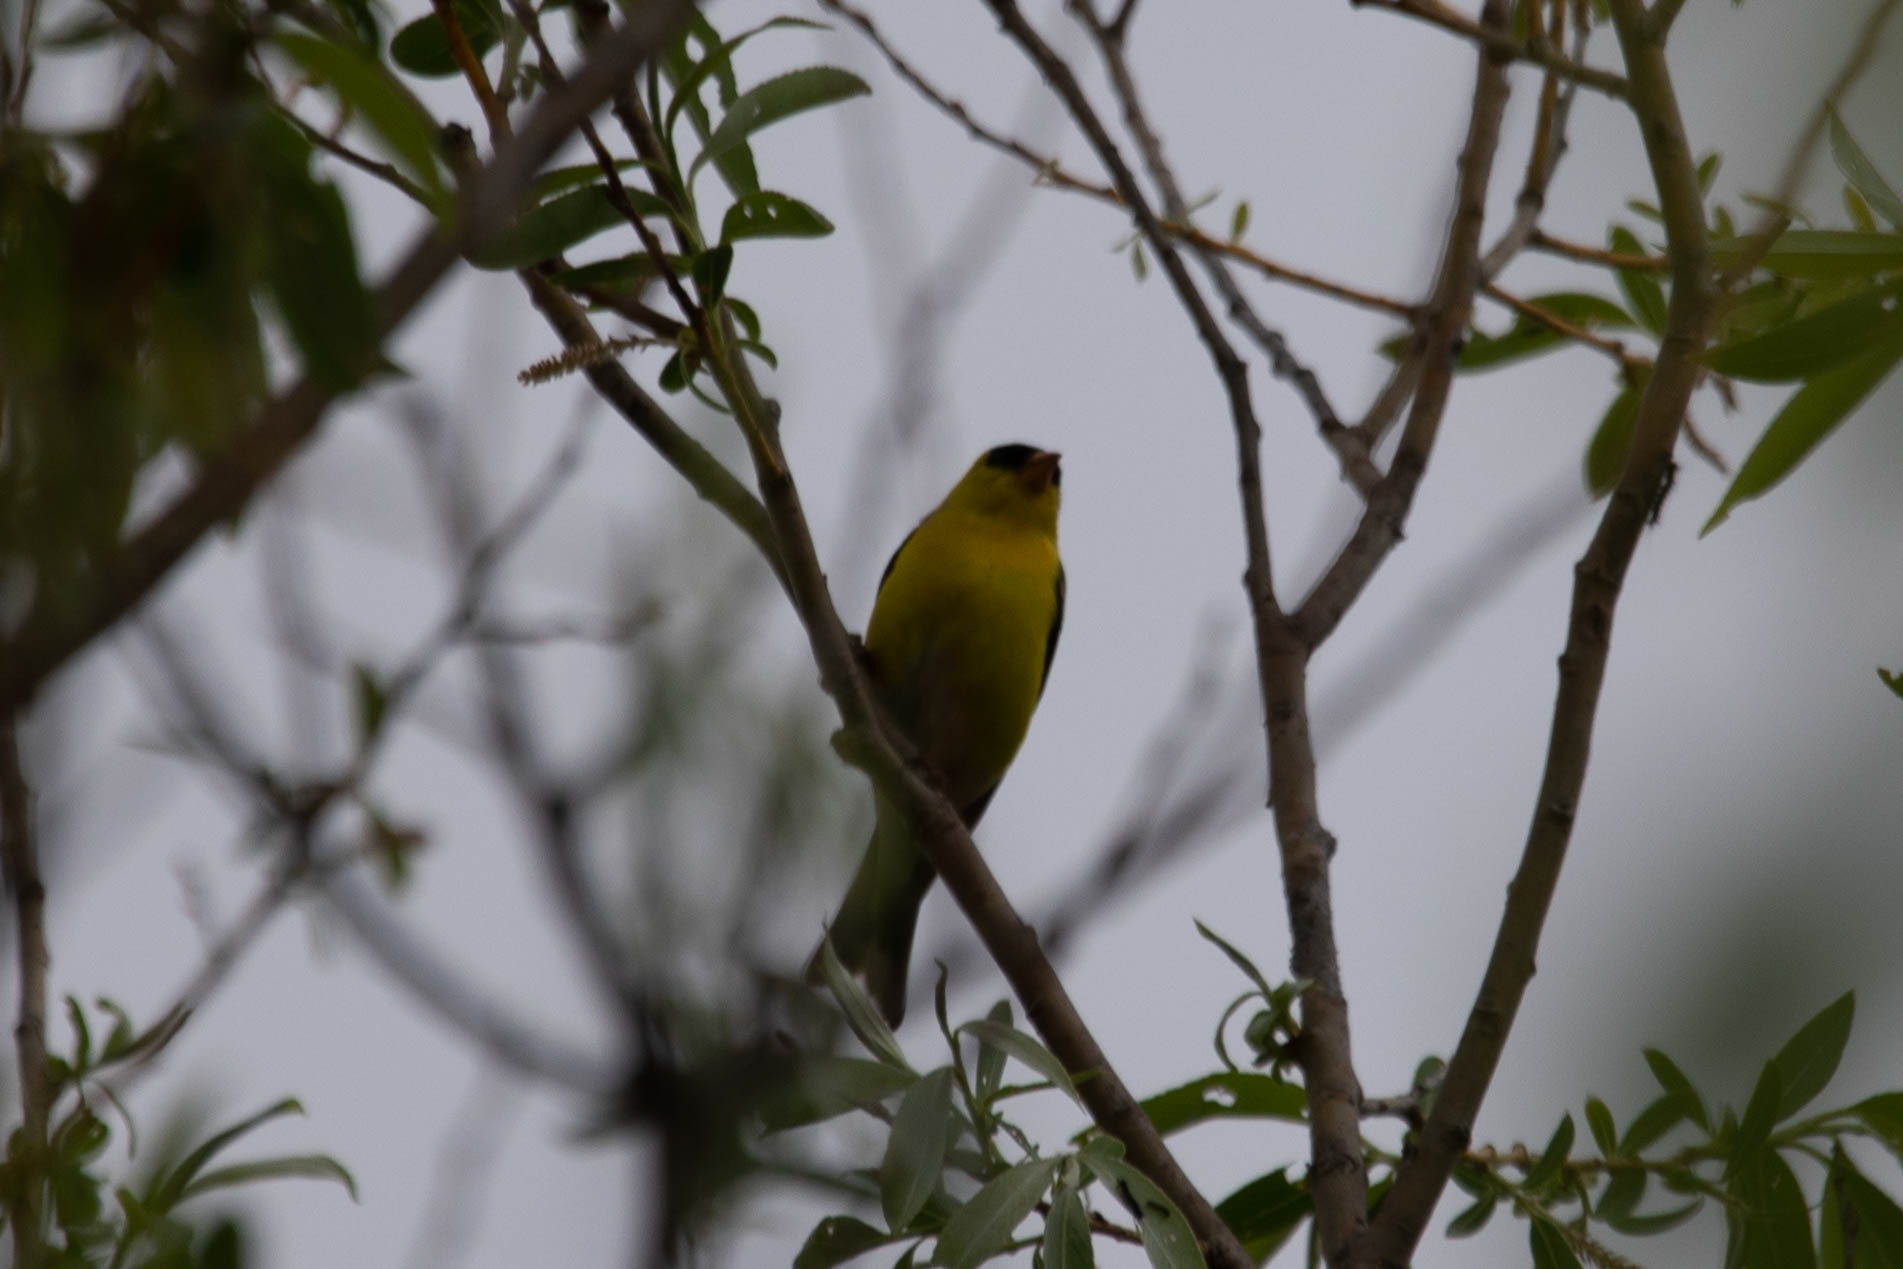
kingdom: Animalia
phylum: Chordata
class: Aves
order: Passeriformes
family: Fringillidae
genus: Spinus
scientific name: Spinus tristis
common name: American goldfinch
